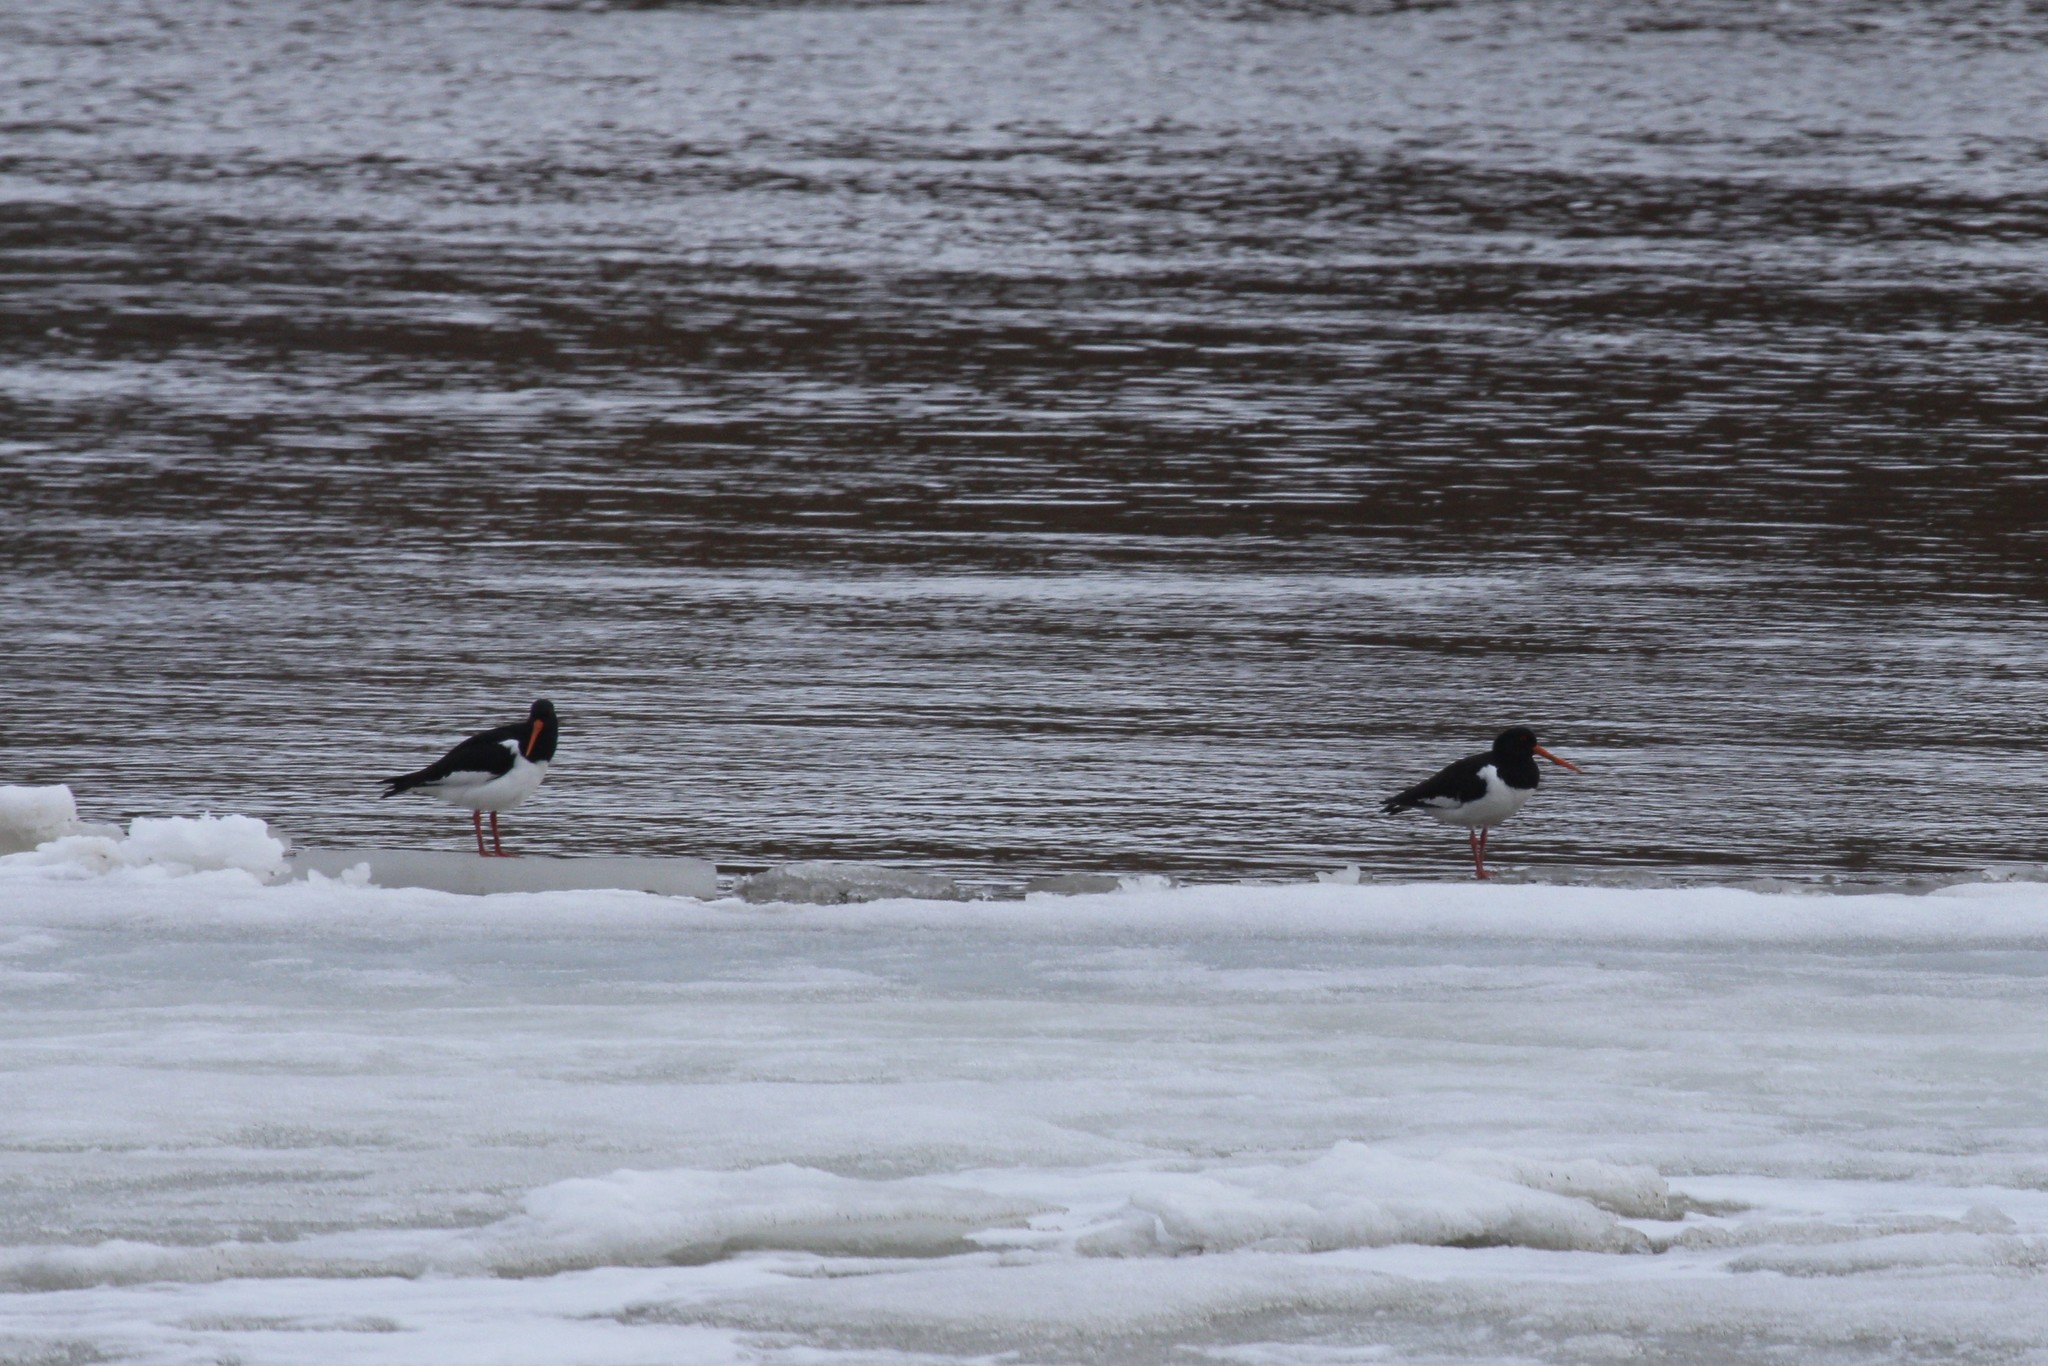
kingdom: Animalia
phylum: Chordata
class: Aves
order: Charadriiformes
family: Haematopodidae
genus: Haematopus
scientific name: Haematopus ostralegus
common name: Eurasian oystercatcher
